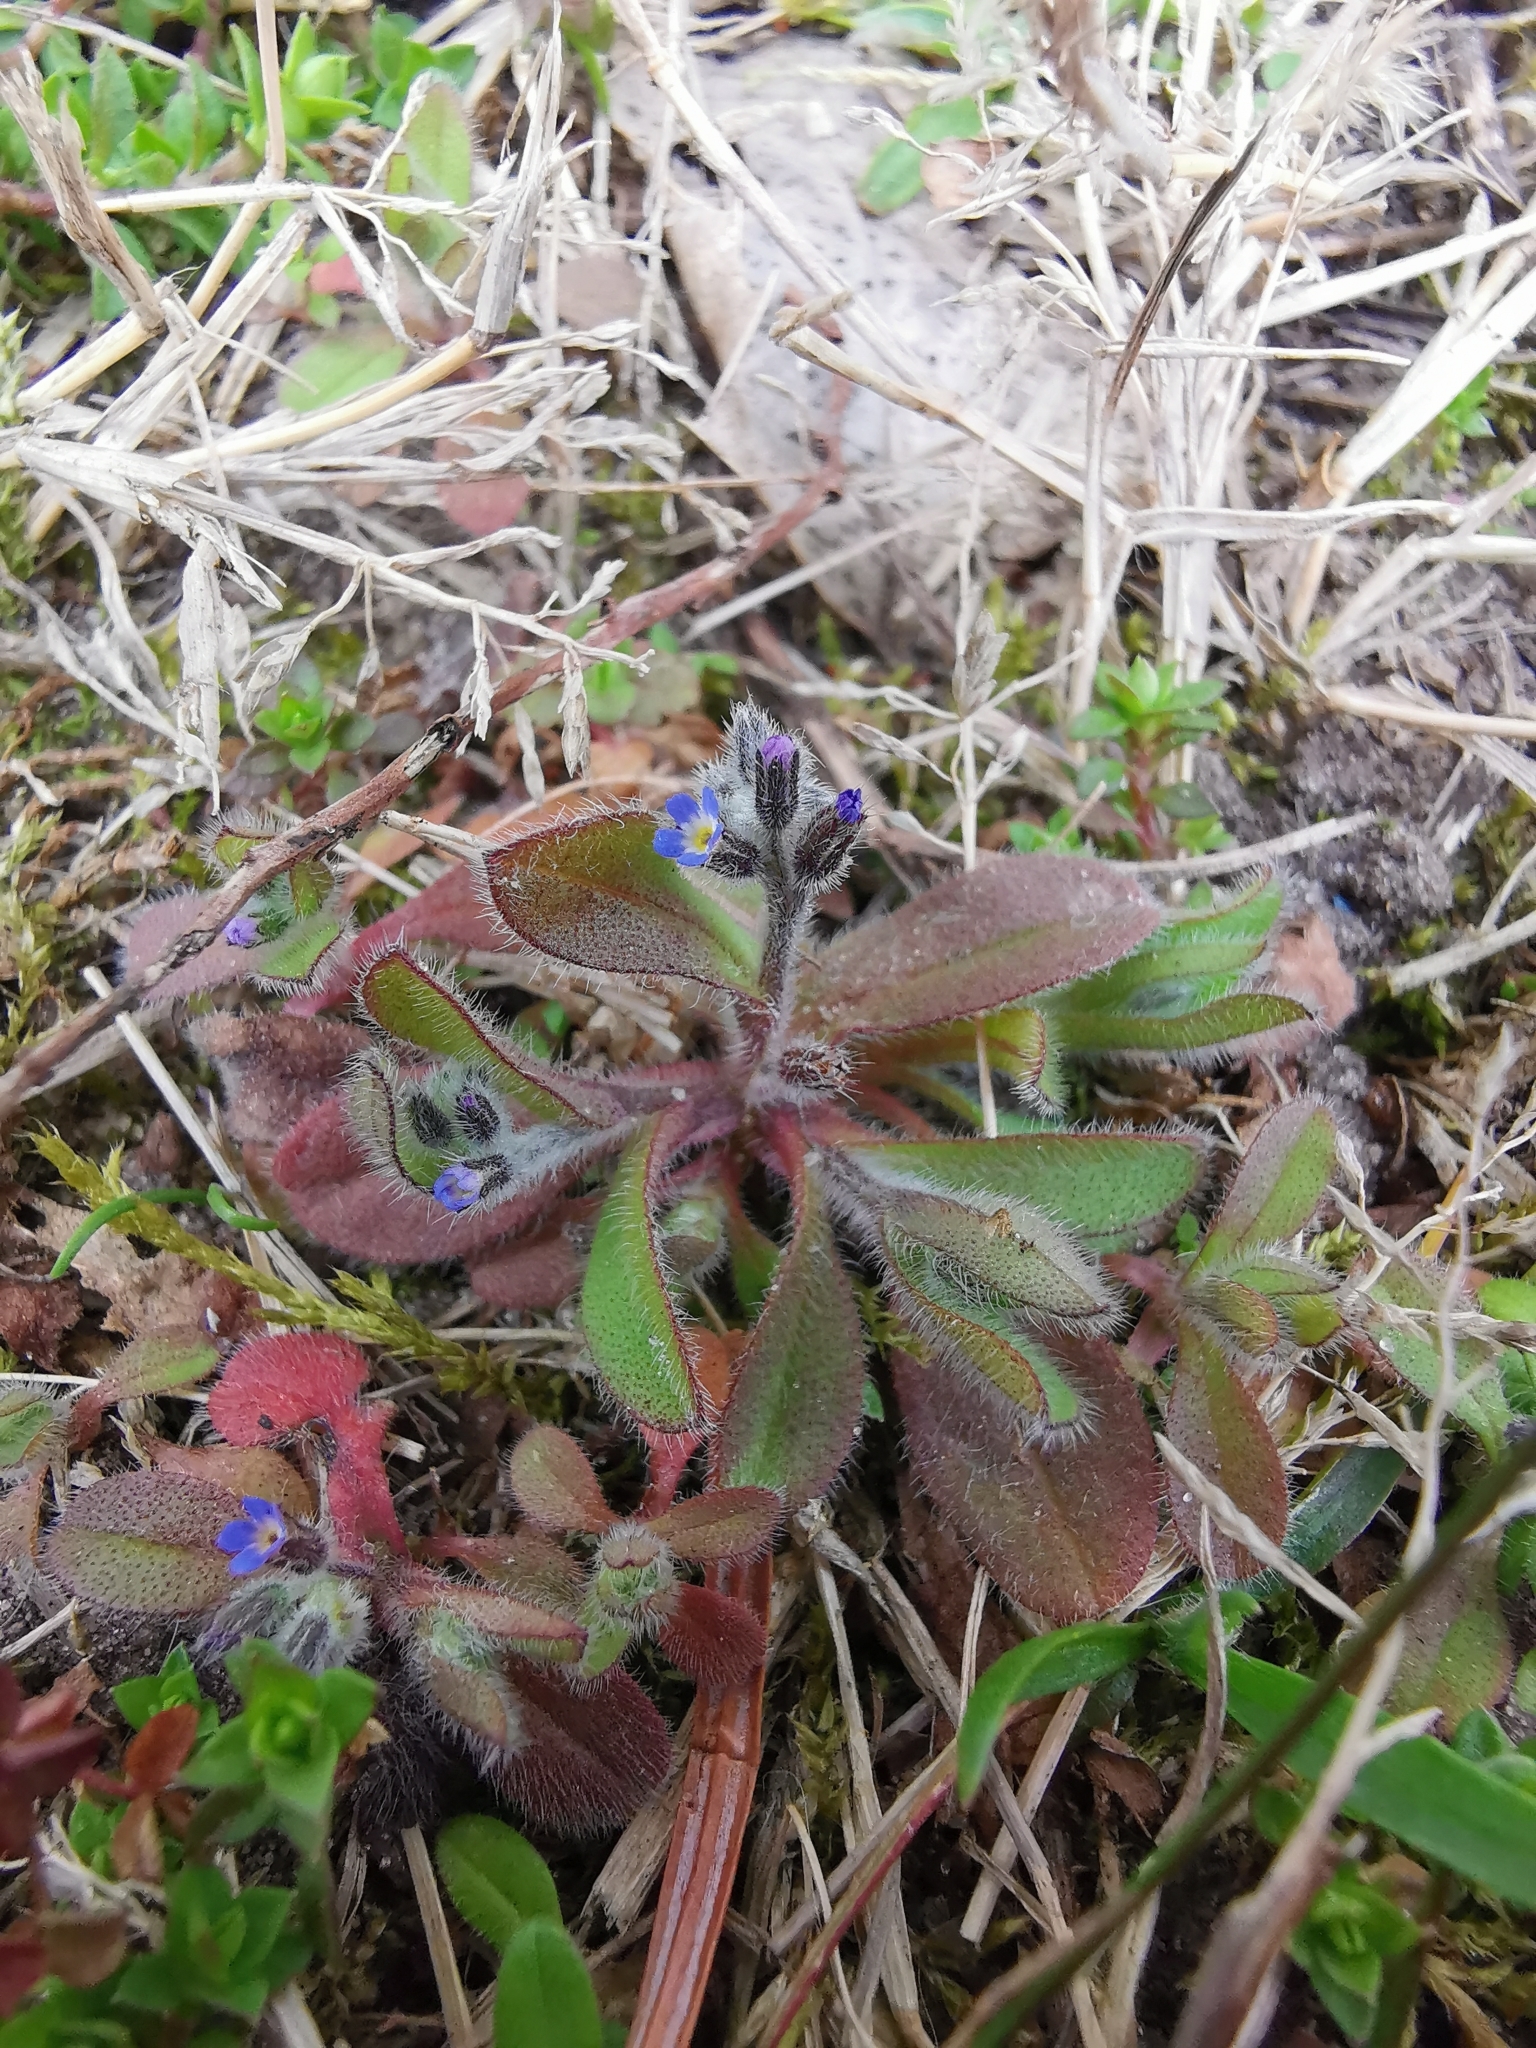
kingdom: Plantae
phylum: Tracheophyta
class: Magnoliopsida
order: Boraginales
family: Boraginaceae
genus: Myosotis
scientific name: Myosotis ramosissima
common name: Early forget-me-not
